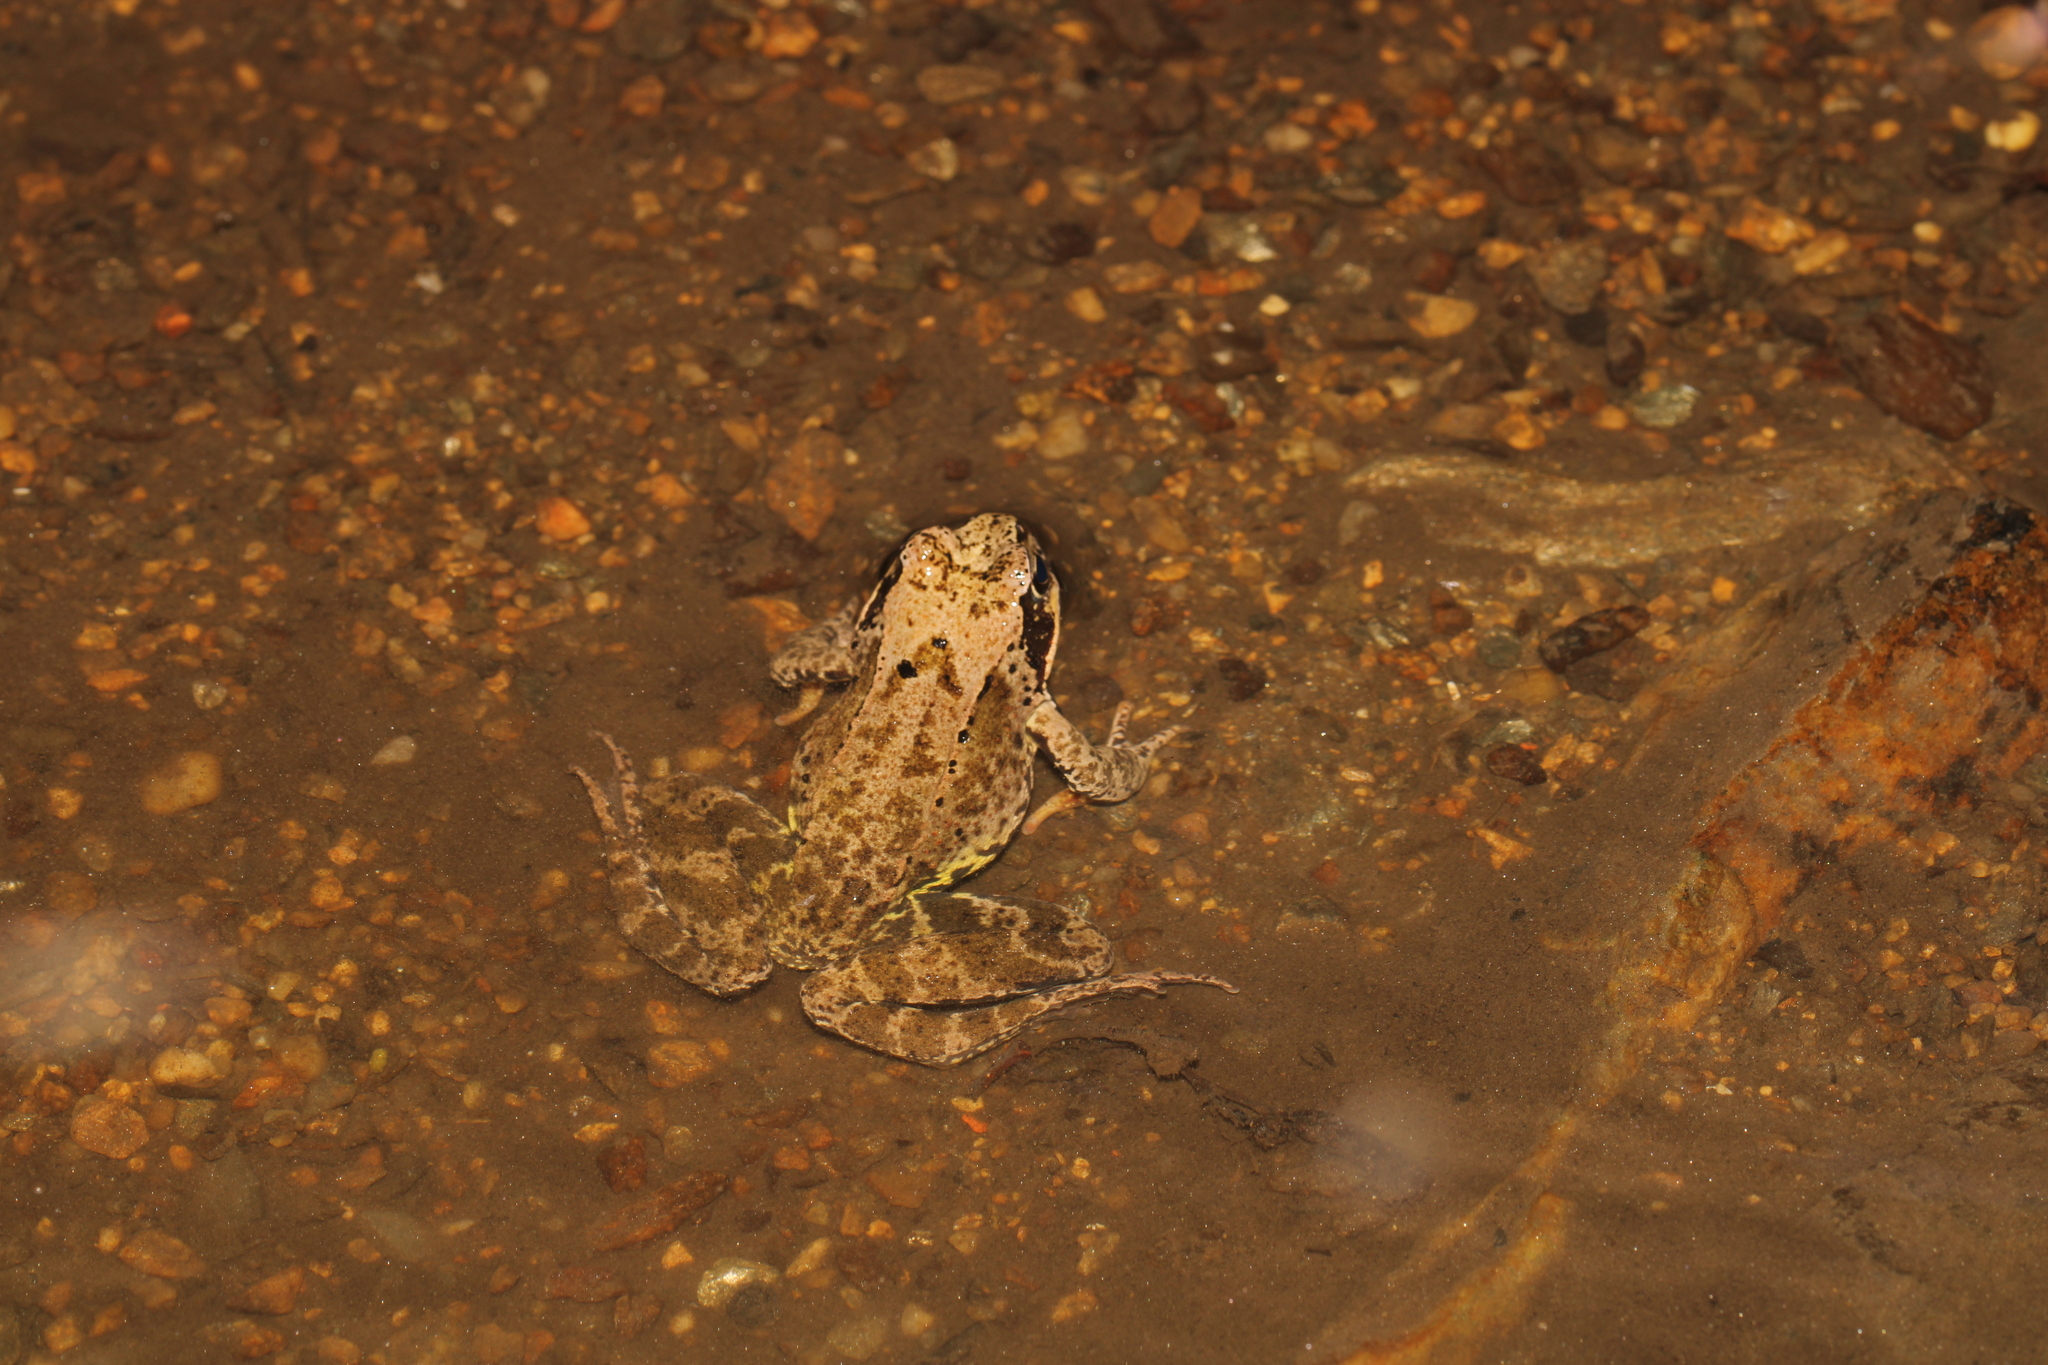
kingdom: Animalia
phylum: Chordata
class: Amphibia
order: Anura
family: Ranidae
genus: Rana
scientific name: Rana temporaria
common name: Common frog
